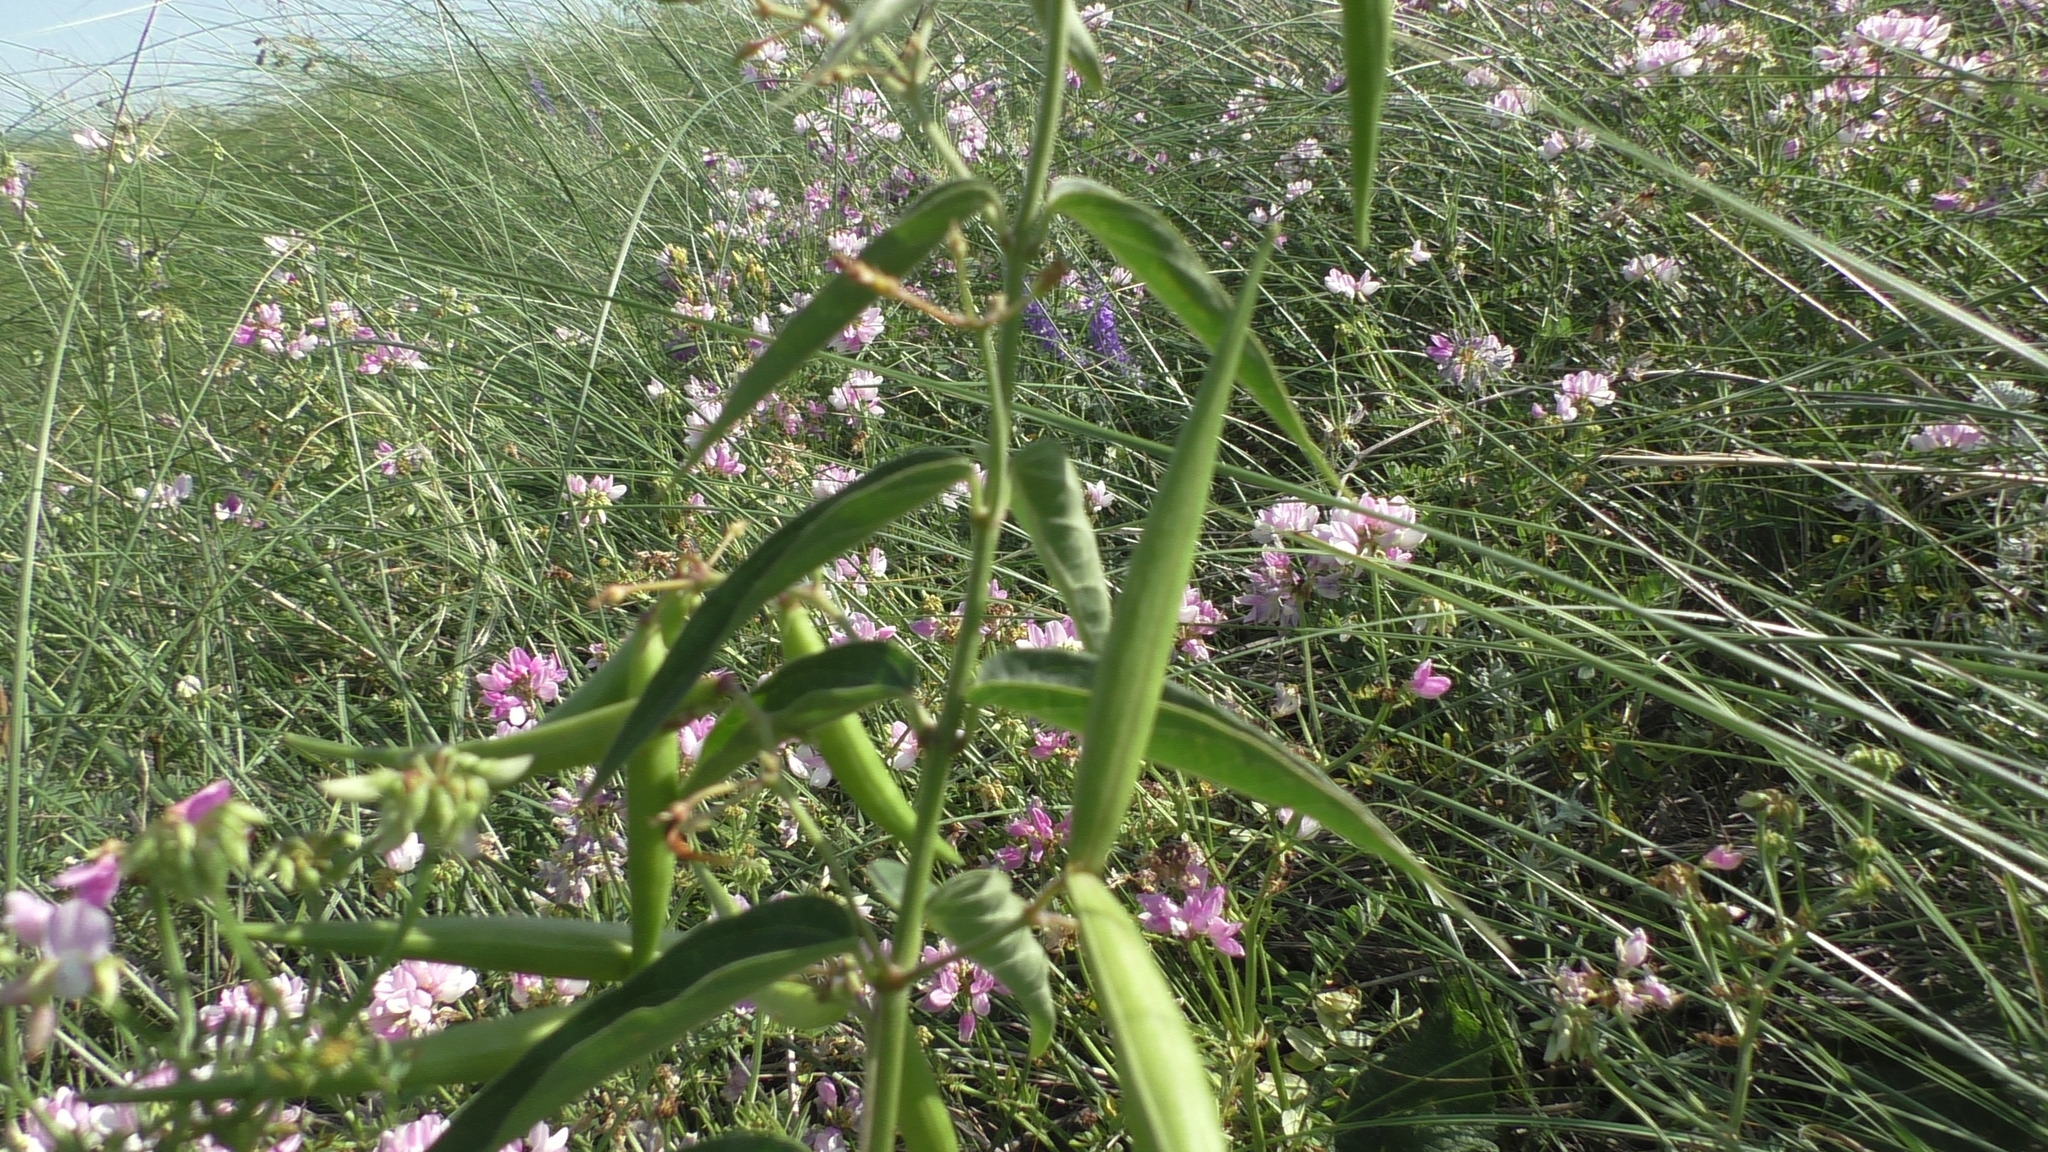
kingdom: Plantae
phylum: Tracheophyta
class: Magnoliopsida
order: Gentianales
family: Apocynaceae
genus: Vincetoxicum
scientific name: Vincetoxicum hirundinaria
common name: White swallowwort
